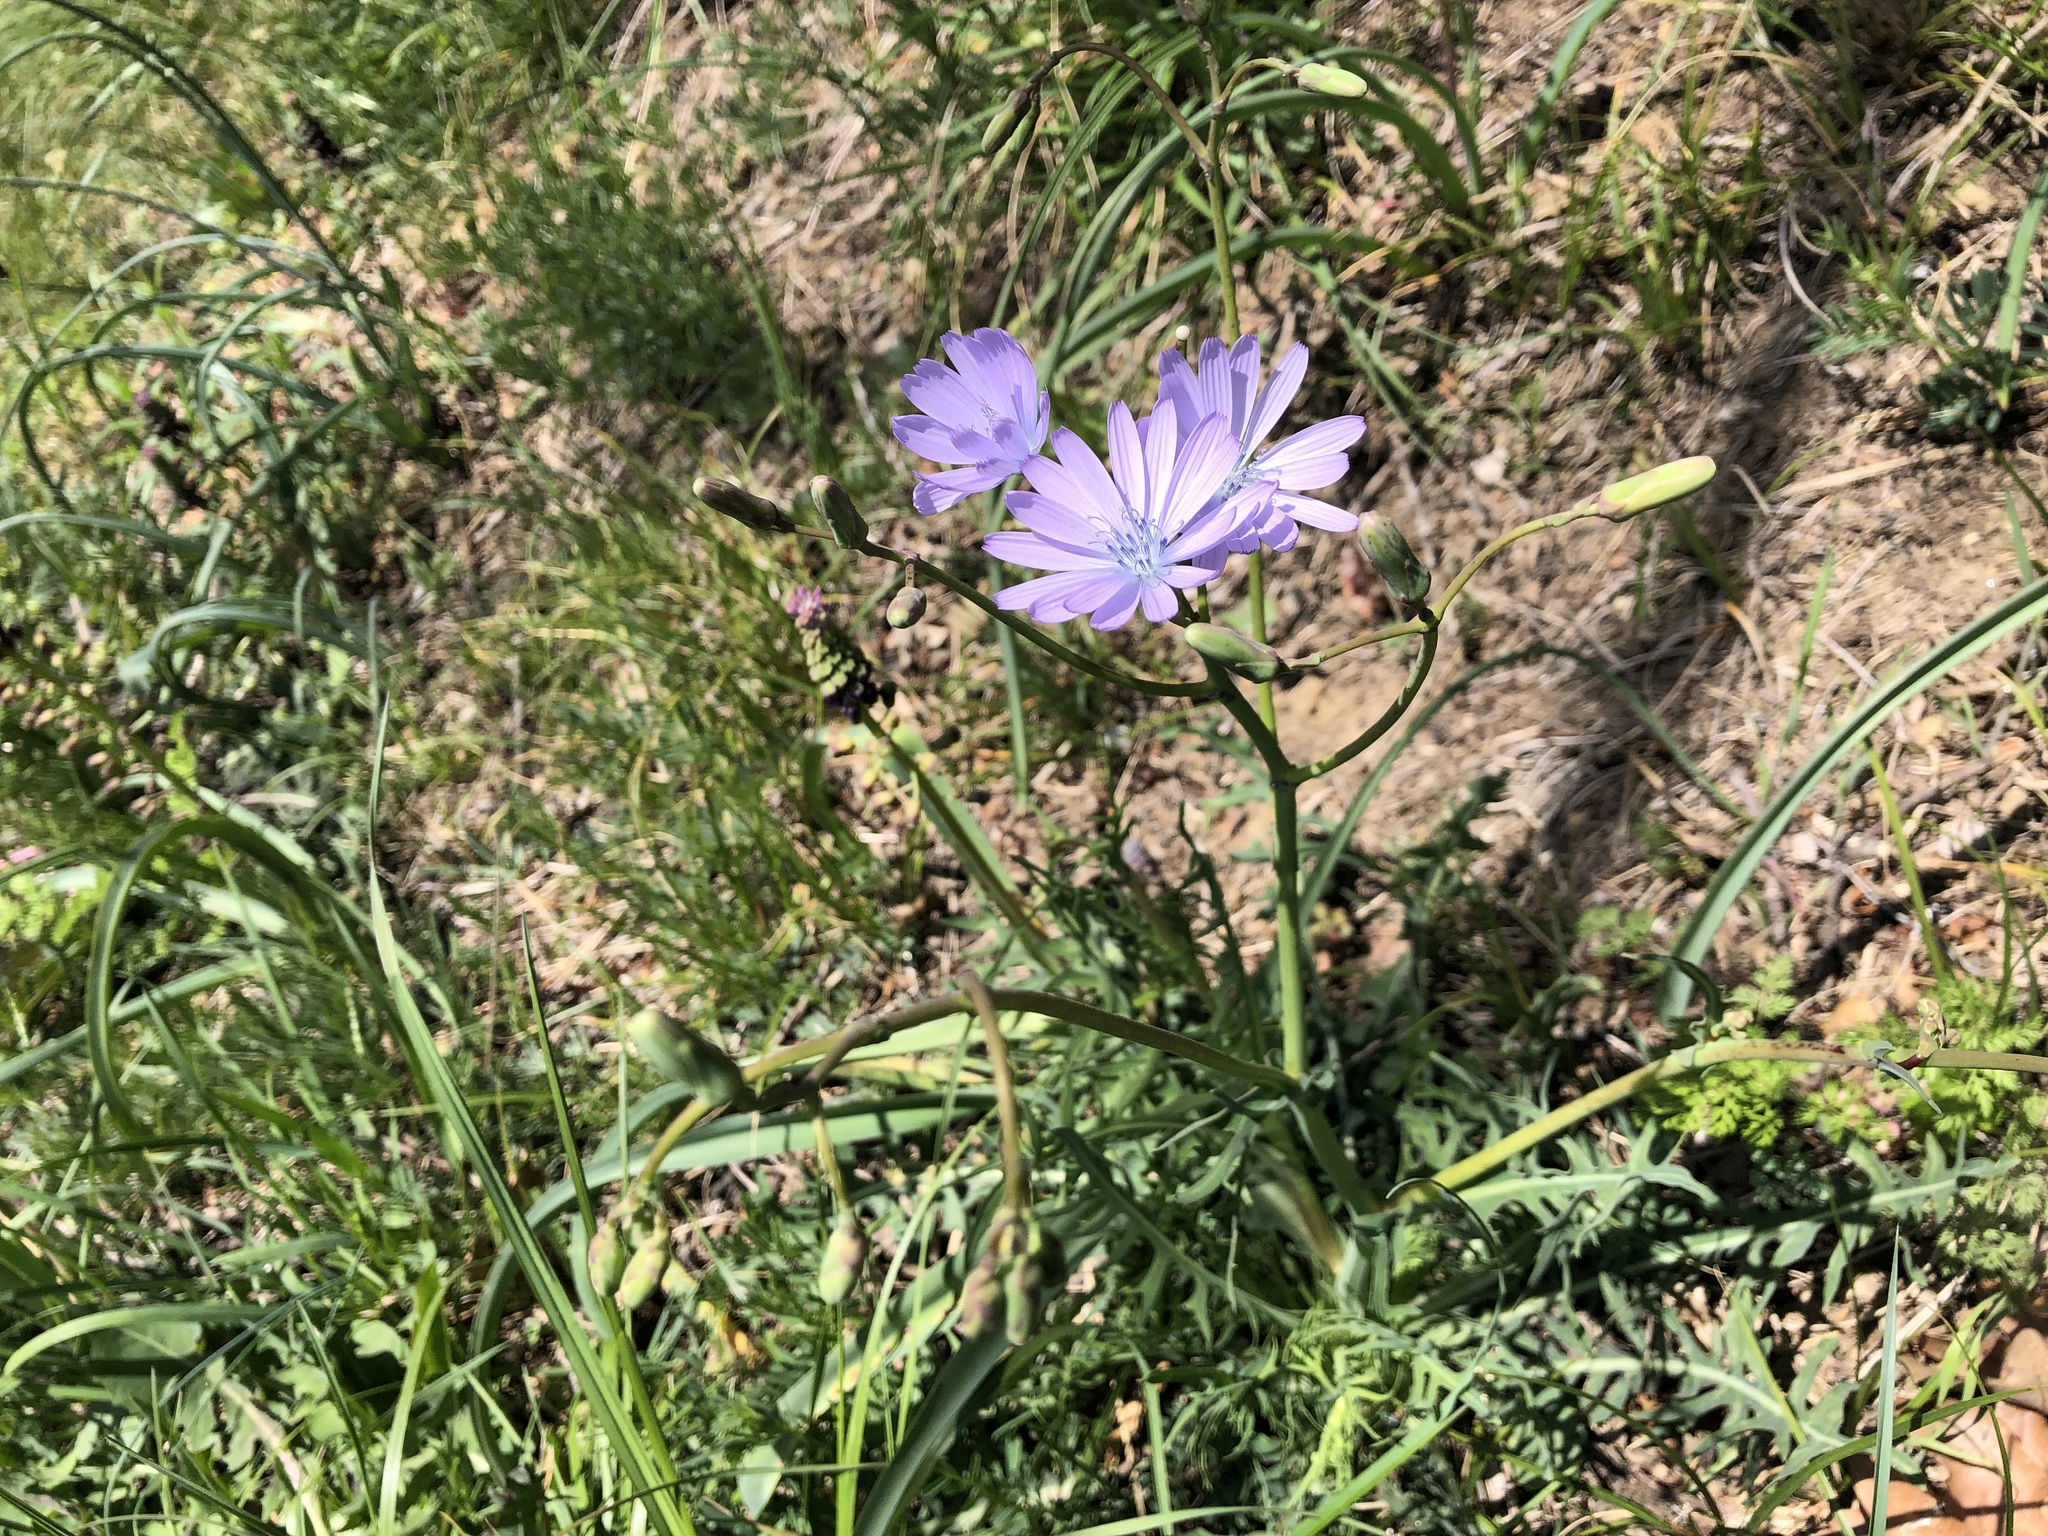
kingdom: Plantae
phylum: Tracheophyta
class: Magnoliopsida
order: Asterales
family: Asteraceae
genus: Lactuca
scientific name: Lactuca perennis
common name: Mountain lettuce
